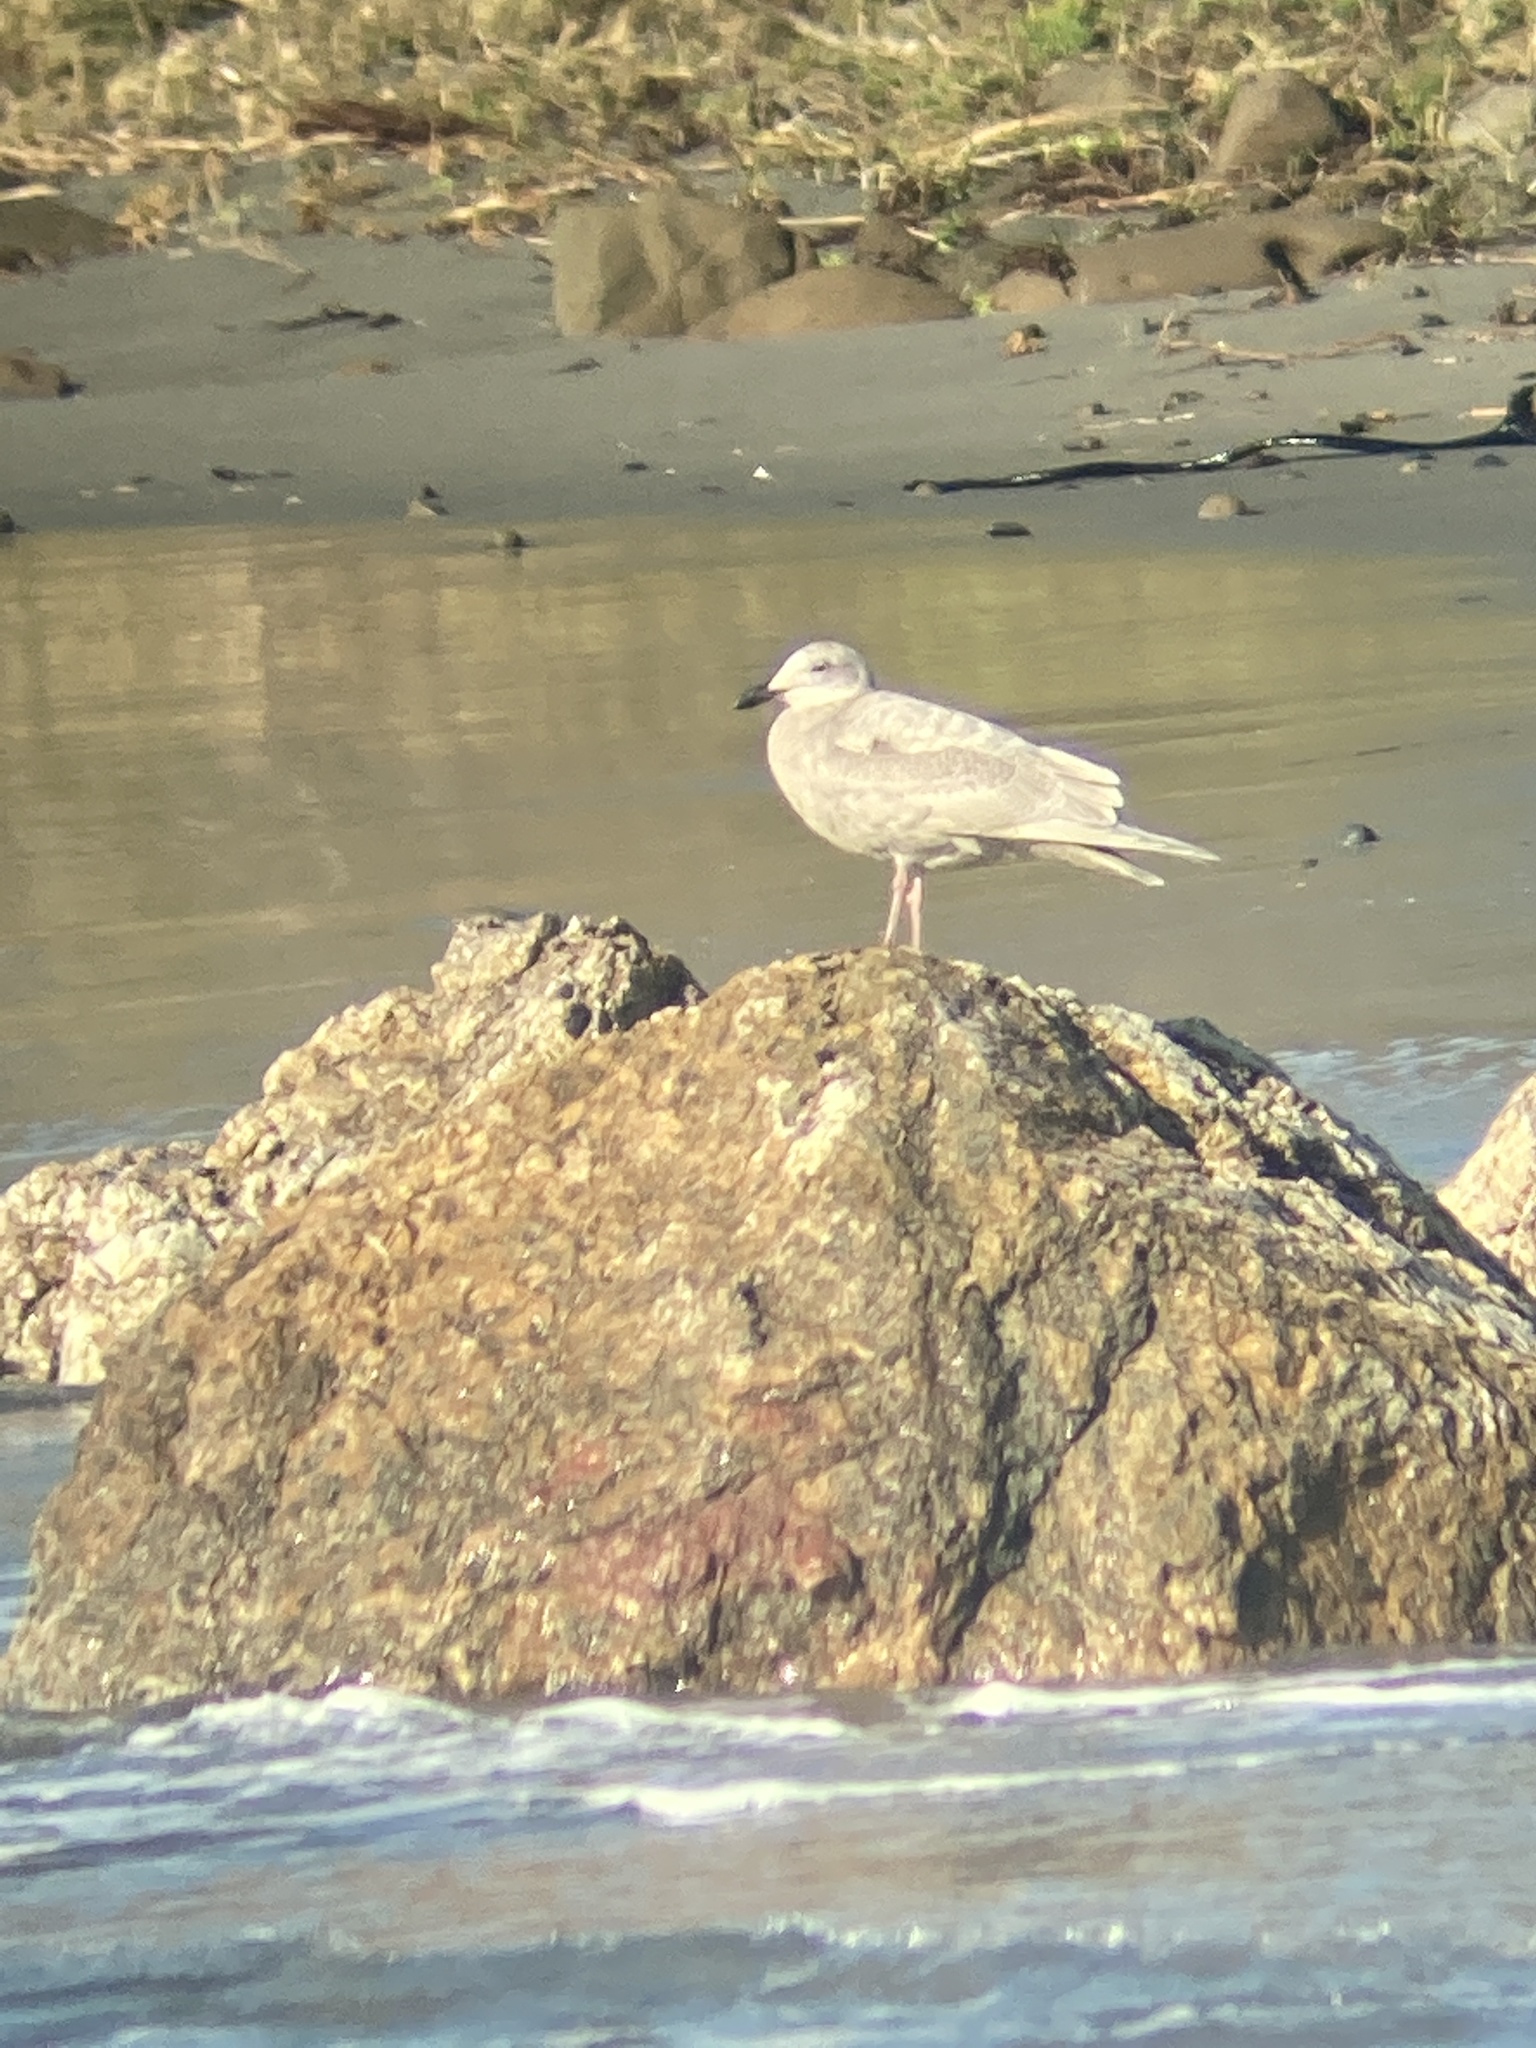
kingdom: Animalia
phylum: Chordata
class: Aves
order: Charadriiformes
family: Laridae
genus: Larus
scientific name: Larus glaucescens
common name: Glaucous-winged gull
